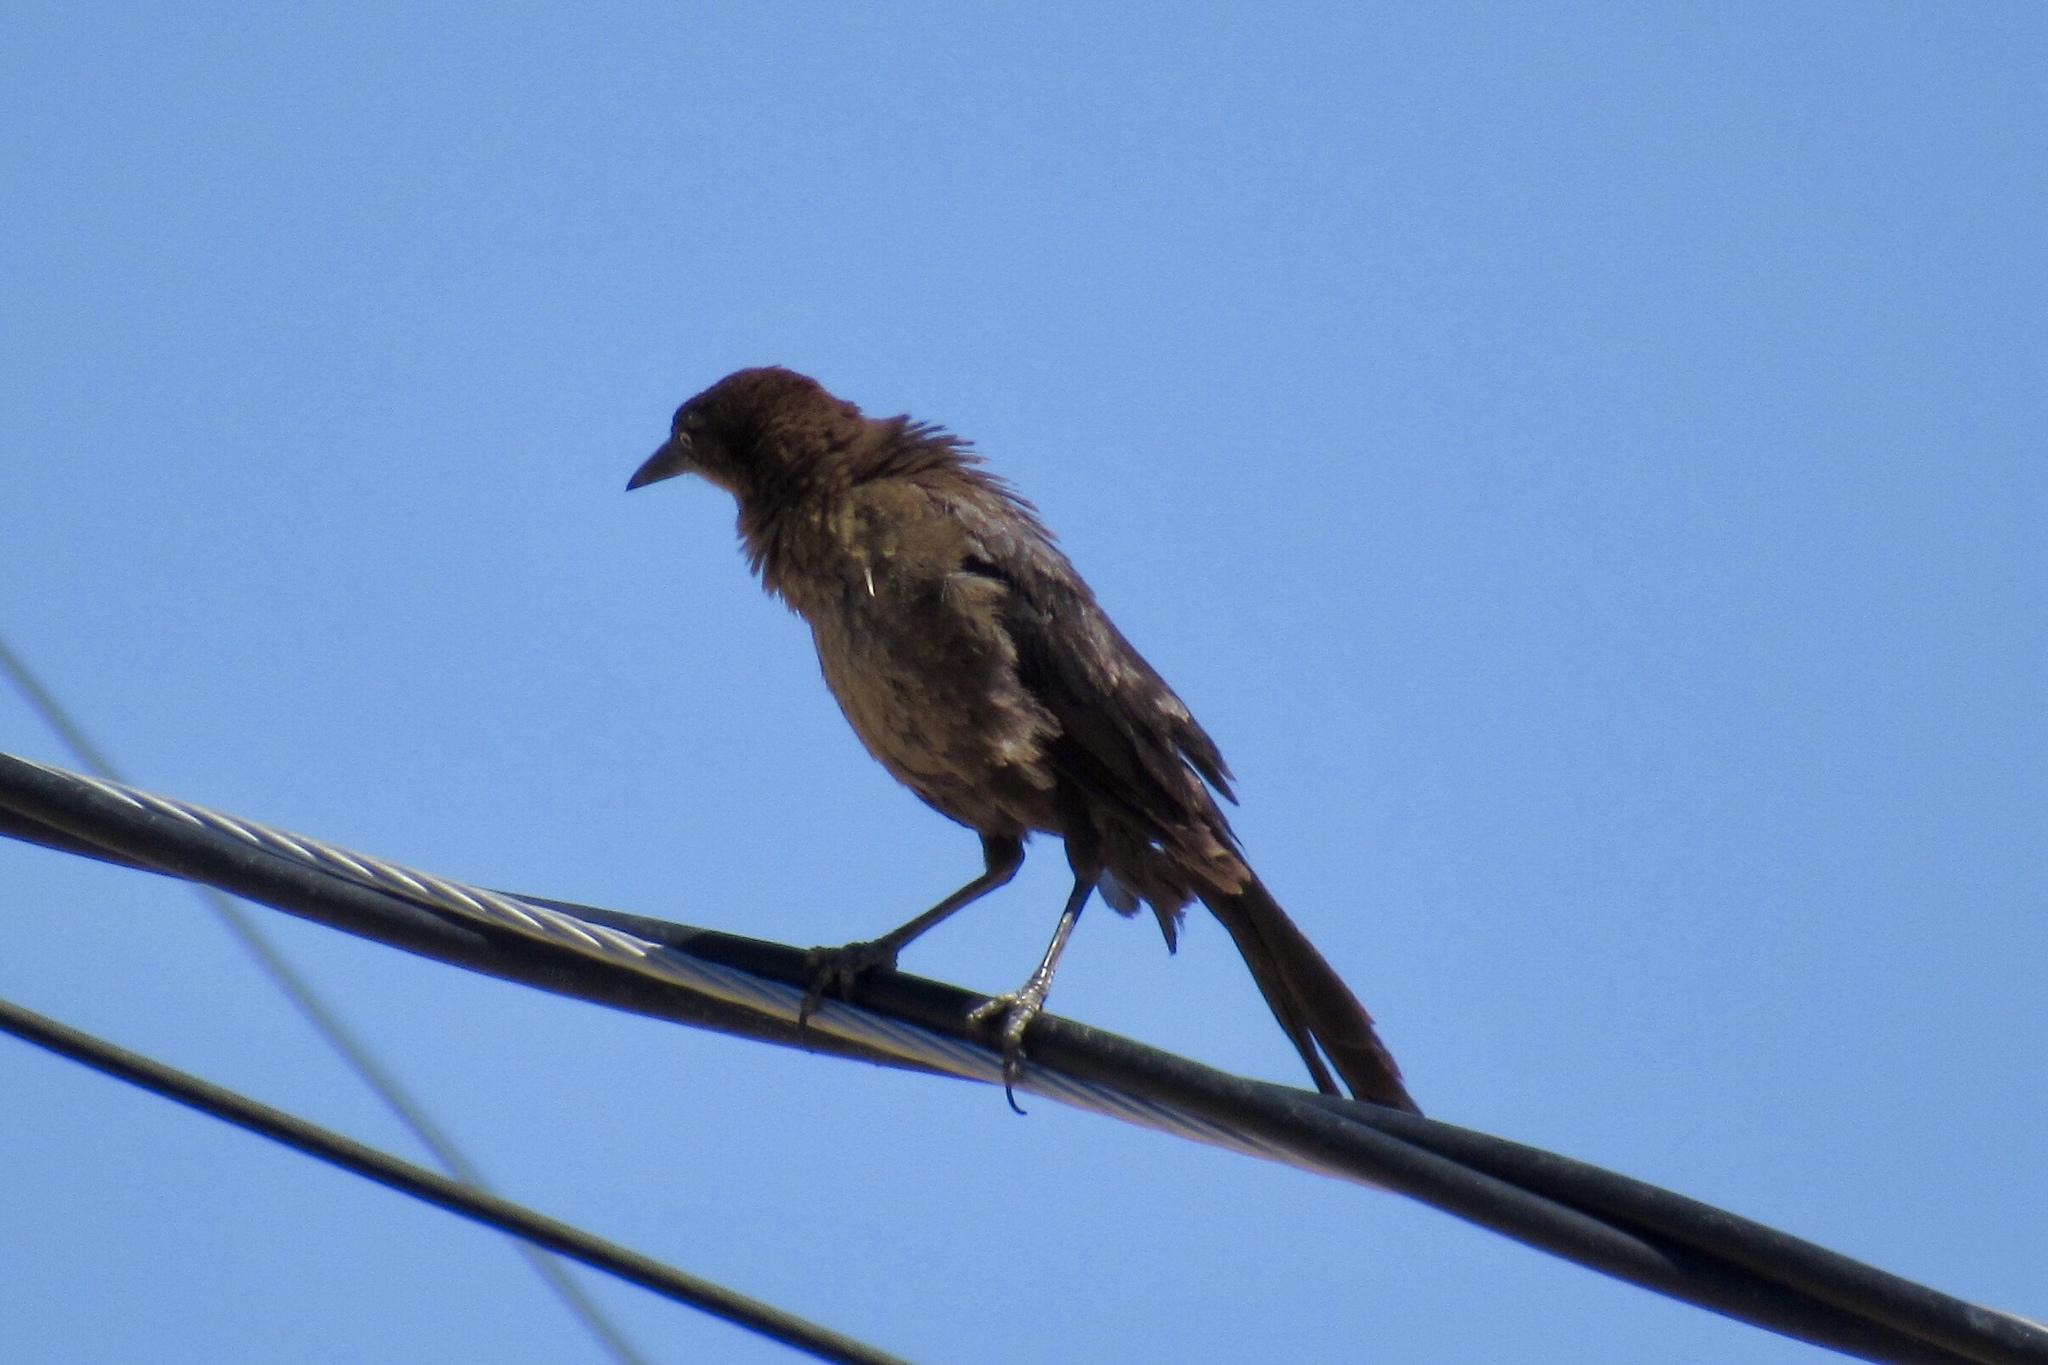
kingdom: Animalia
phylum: Chordata
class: Aves
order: Passeriformes
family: Icteridae
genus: Quiscalus
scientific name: Quiscalus mexicanus
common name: Great-tailed grackle
